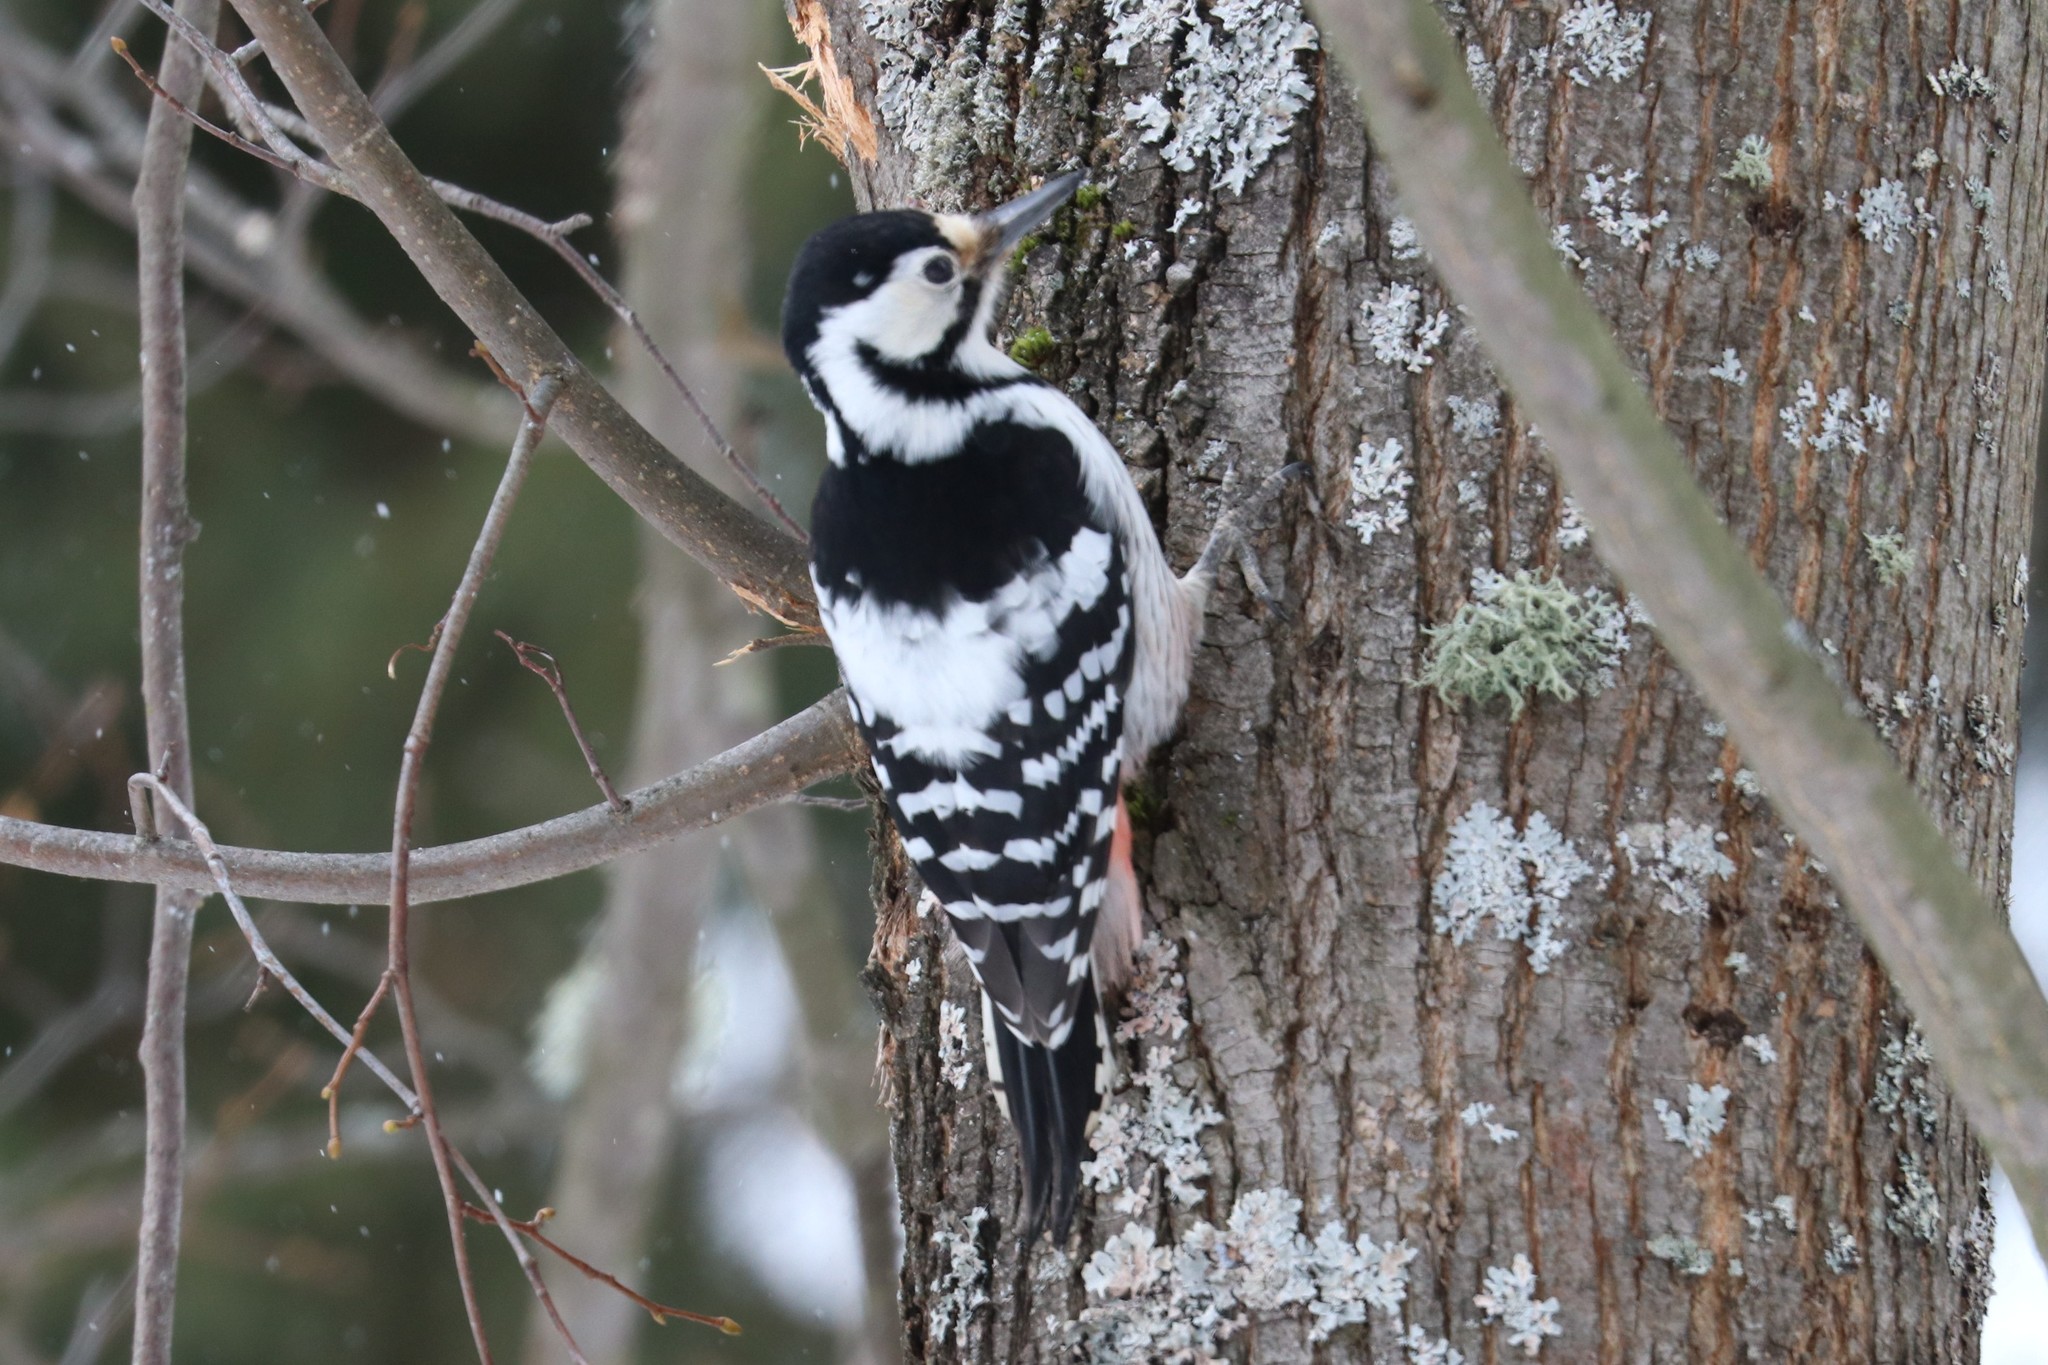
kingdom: Animalia
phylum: Chordata
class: Aves
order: Piciformes
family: Picidae
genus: Dendrocopos
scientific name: Dendrocopos leucotos
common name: White-backed woodpecker
